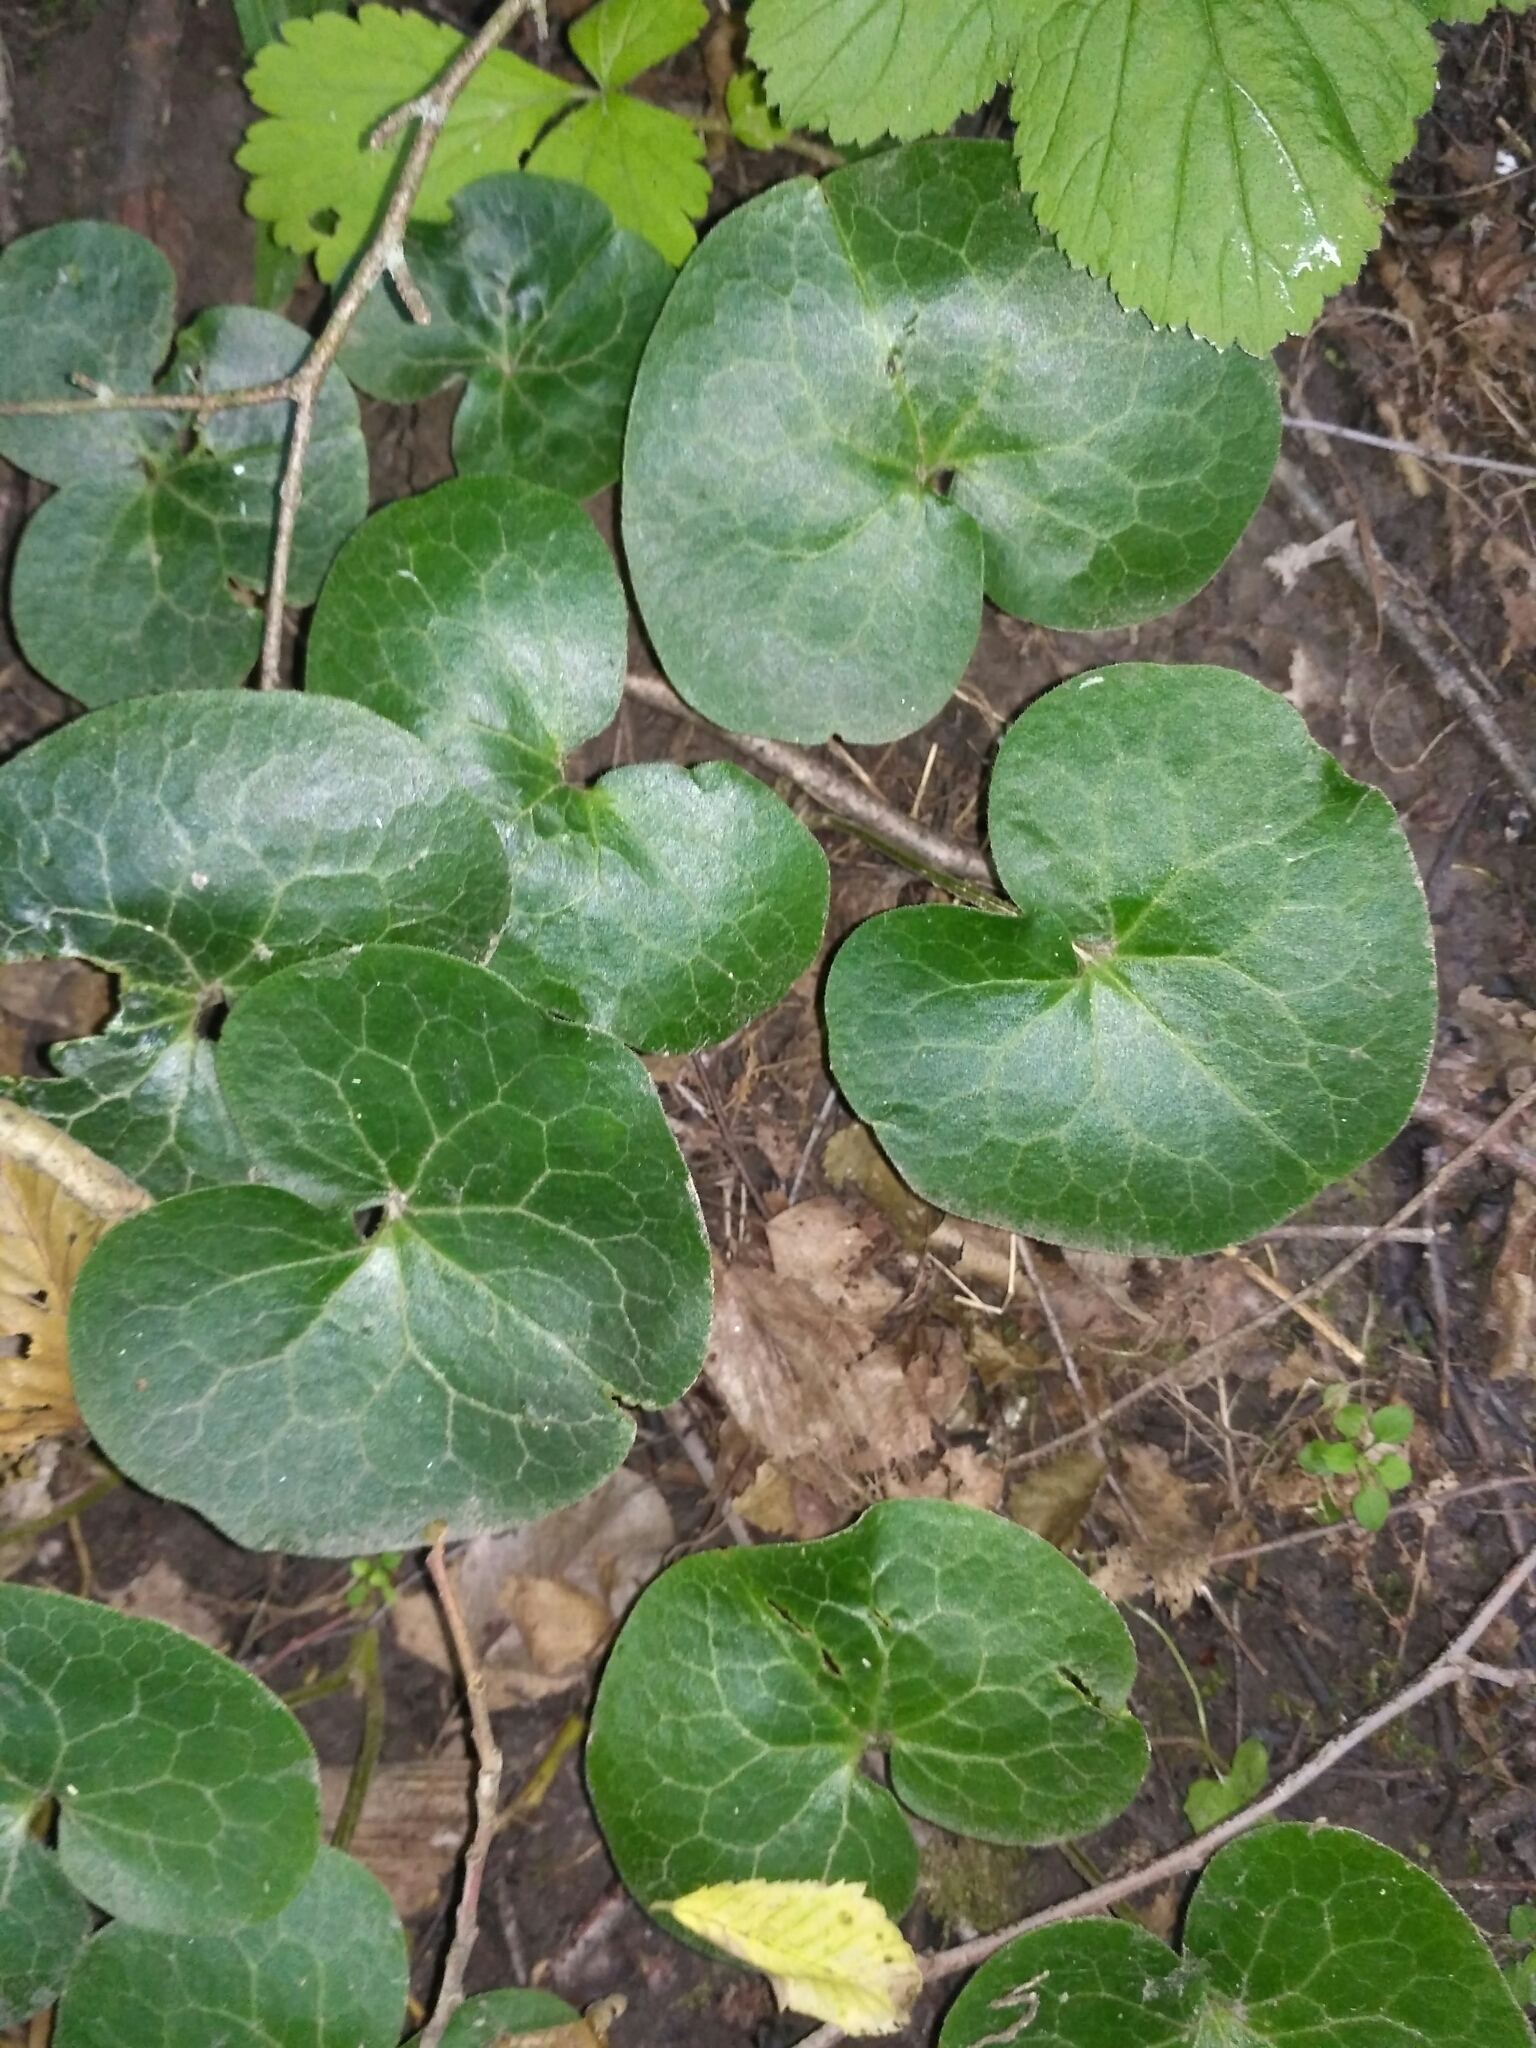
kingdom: Plantae
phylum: Tracheophyta
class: Magnoliopsida
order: Piperales
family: Aristolochiaceae
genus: Asarum
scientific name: Asarum europaeum
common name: Asarabacca
